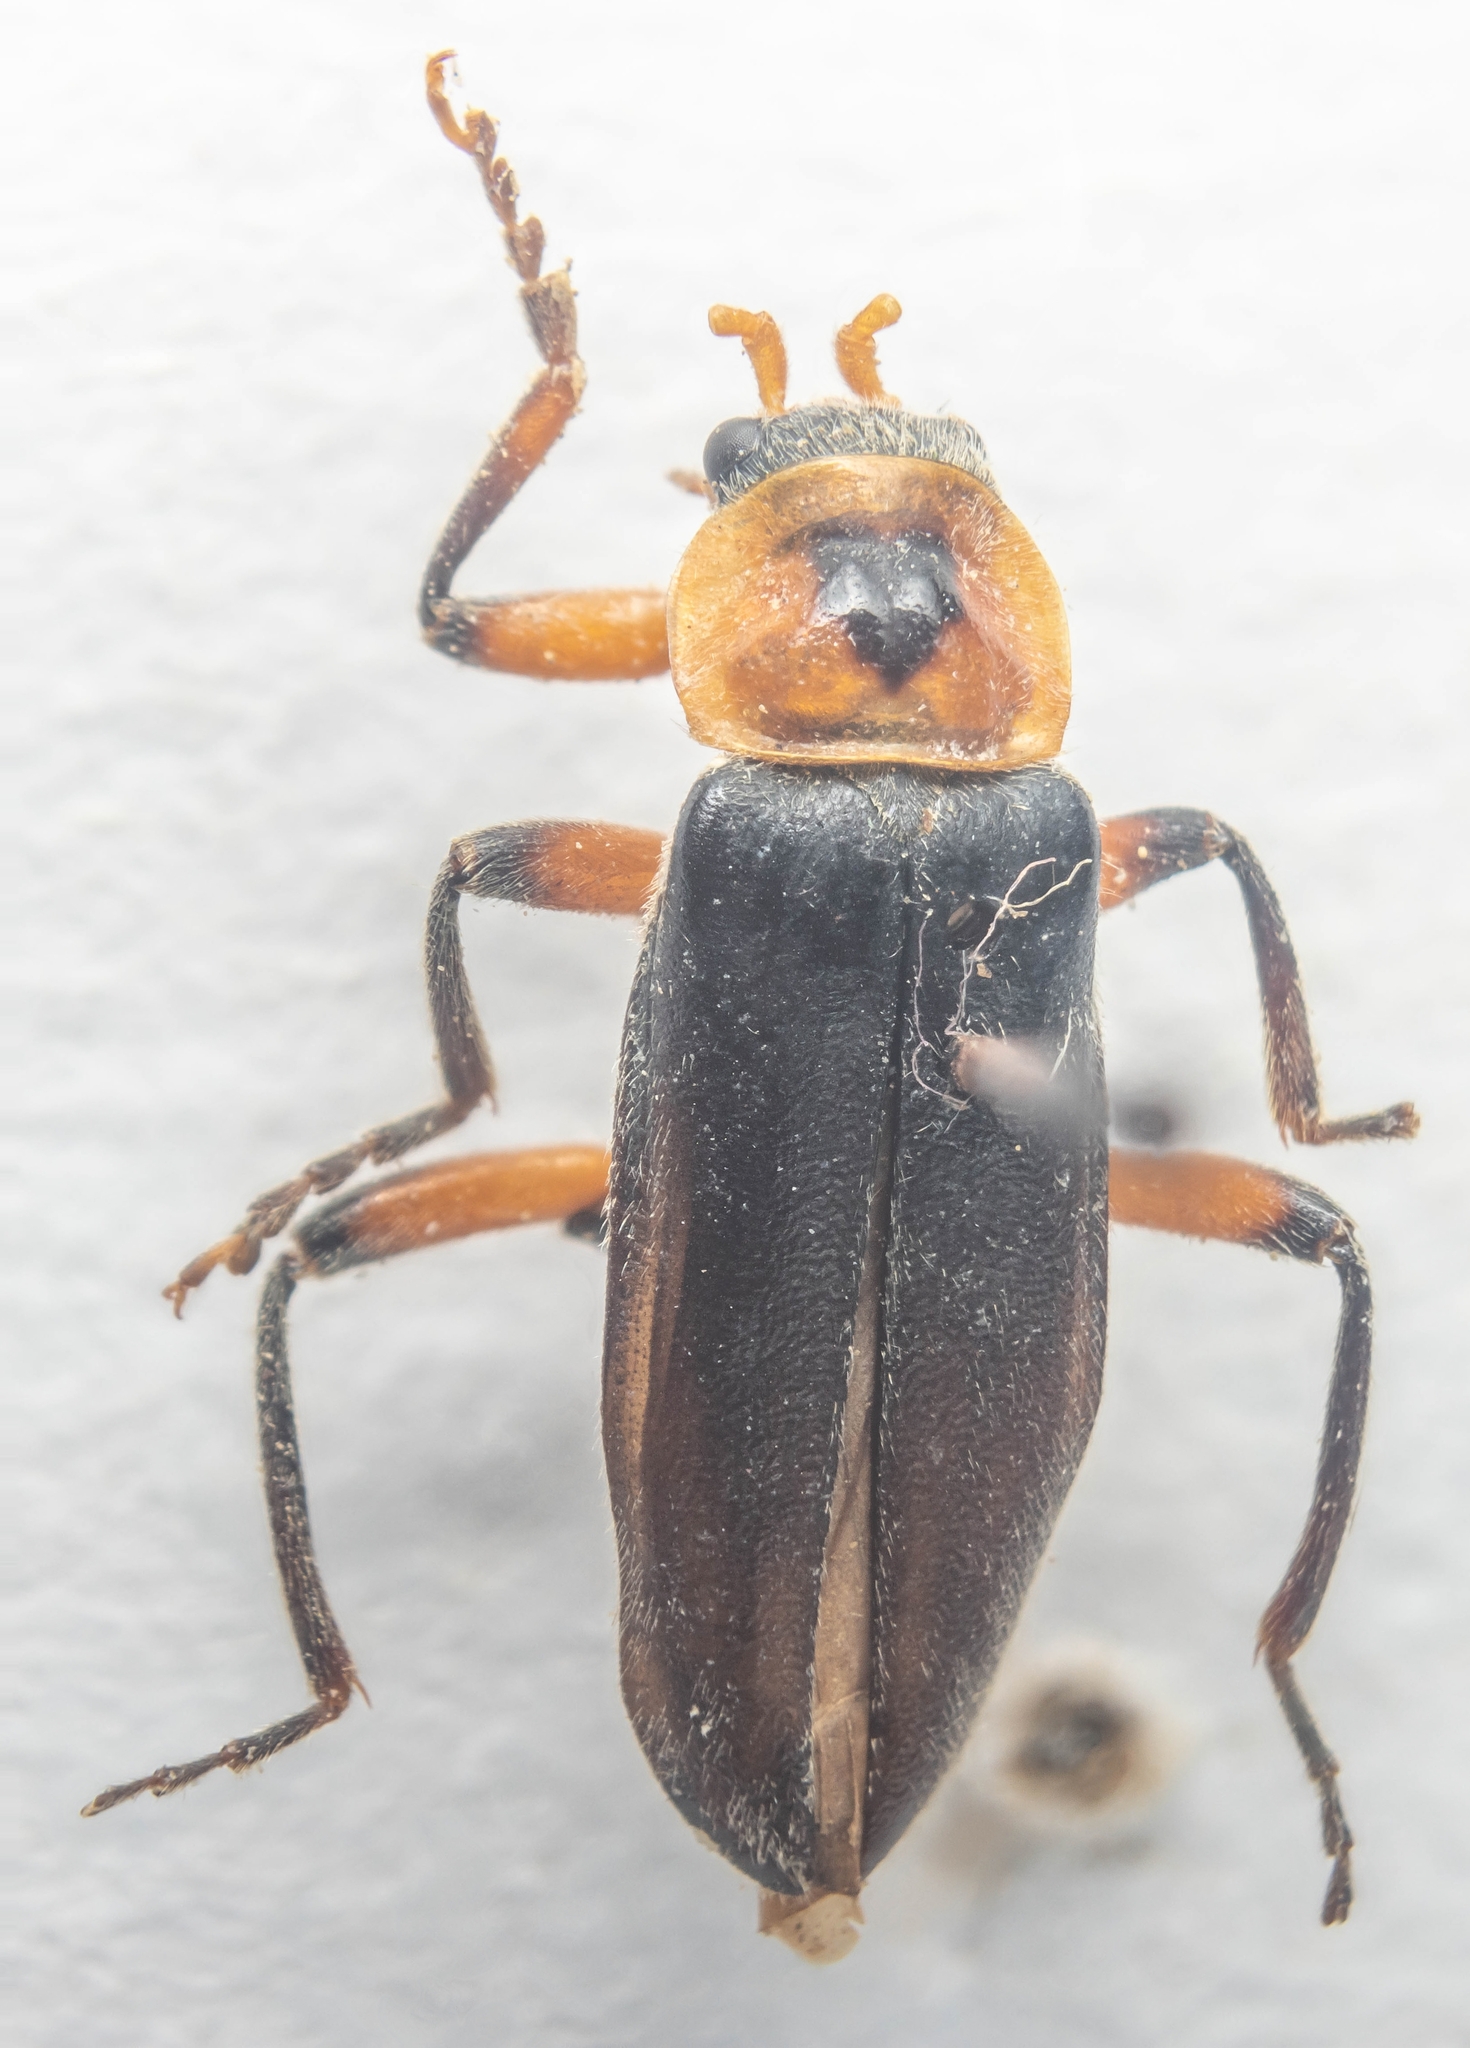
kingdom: Animalia
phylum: Arthropoda
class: Insecta
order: Coleoptera
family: Cantharidae
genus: Cantharis
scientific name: Cantharis rustica
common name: Soldier beetle
